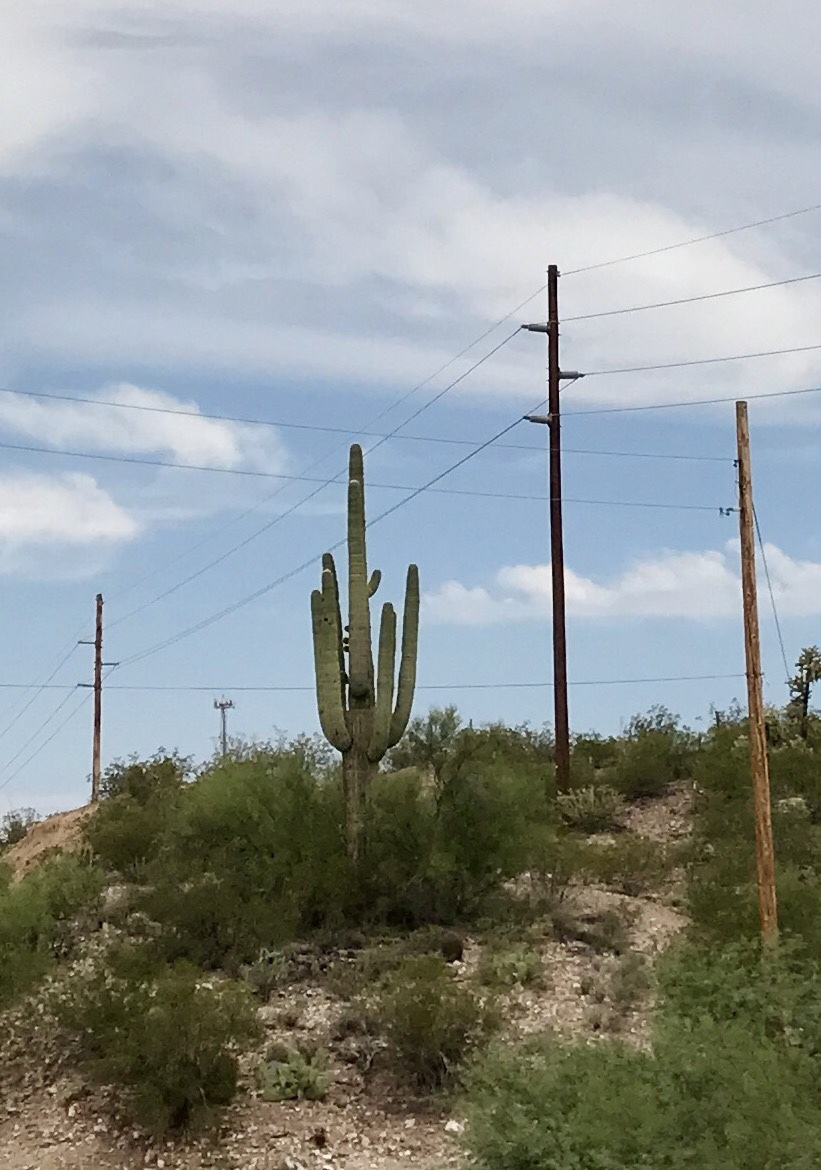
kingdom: Plantae
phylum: Tracheophyta
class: Magnoliopsida
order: Caryophyllales
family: Cactaceae
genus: Carnegiea
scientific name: Carnegiea gigantea
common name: Saguaro
